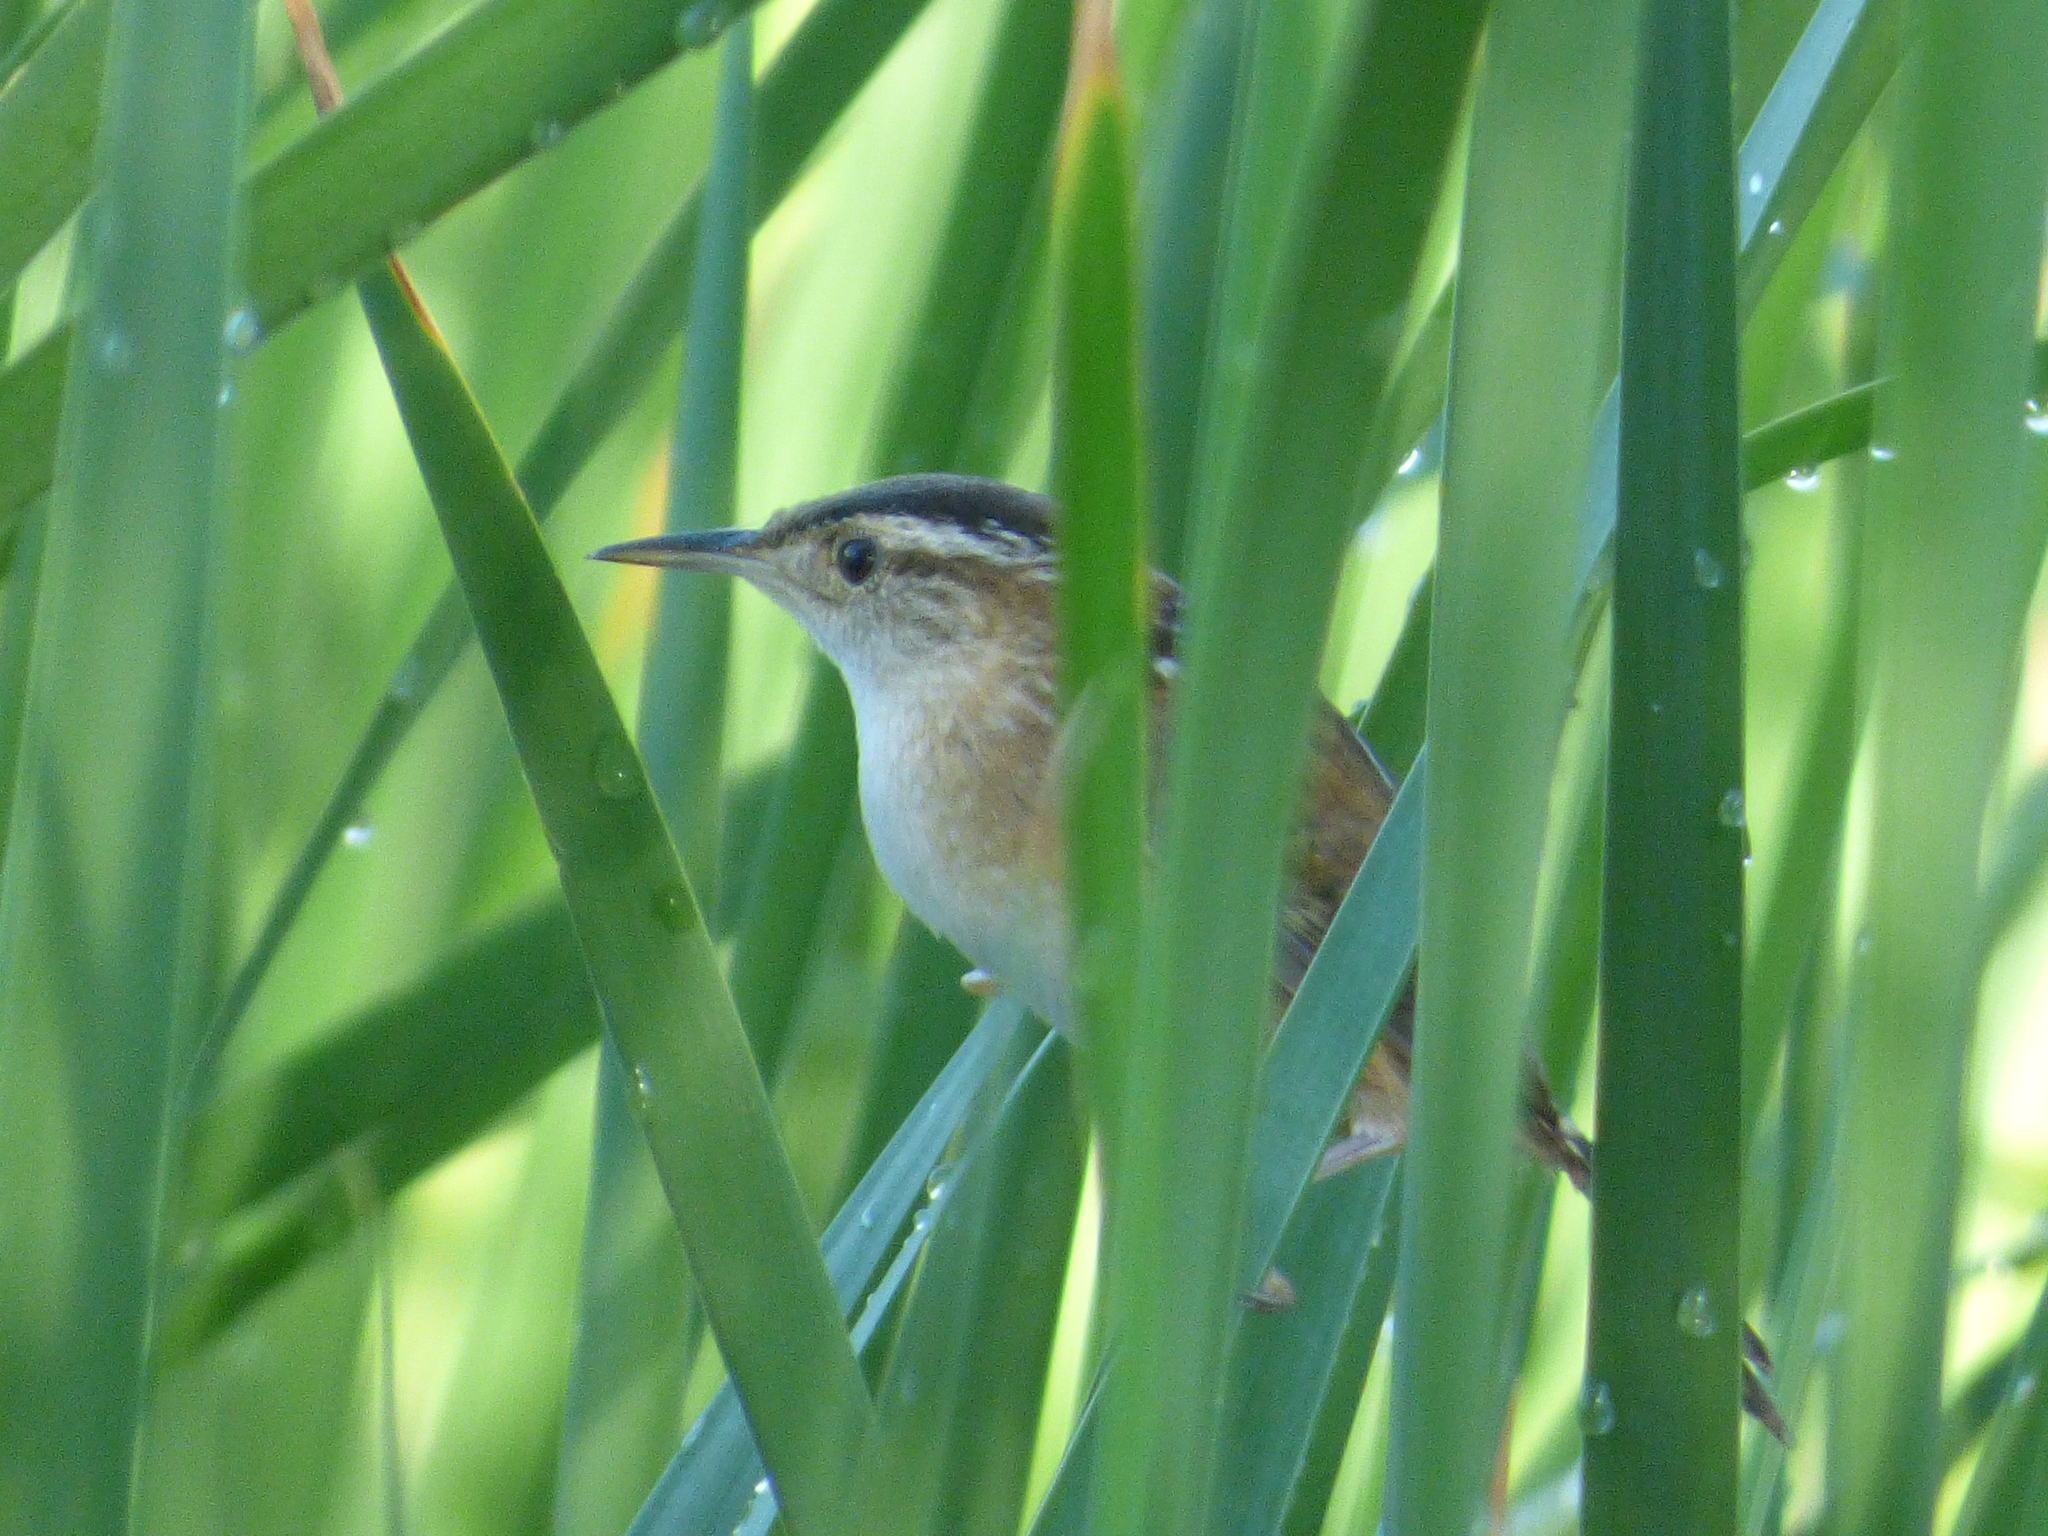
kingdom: Animalia
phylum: Chordata
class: Aves
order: Passeriformes
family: Troglodytidae
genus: Cistothorus
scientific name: Cistothorus palustris
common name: Marsh wren
